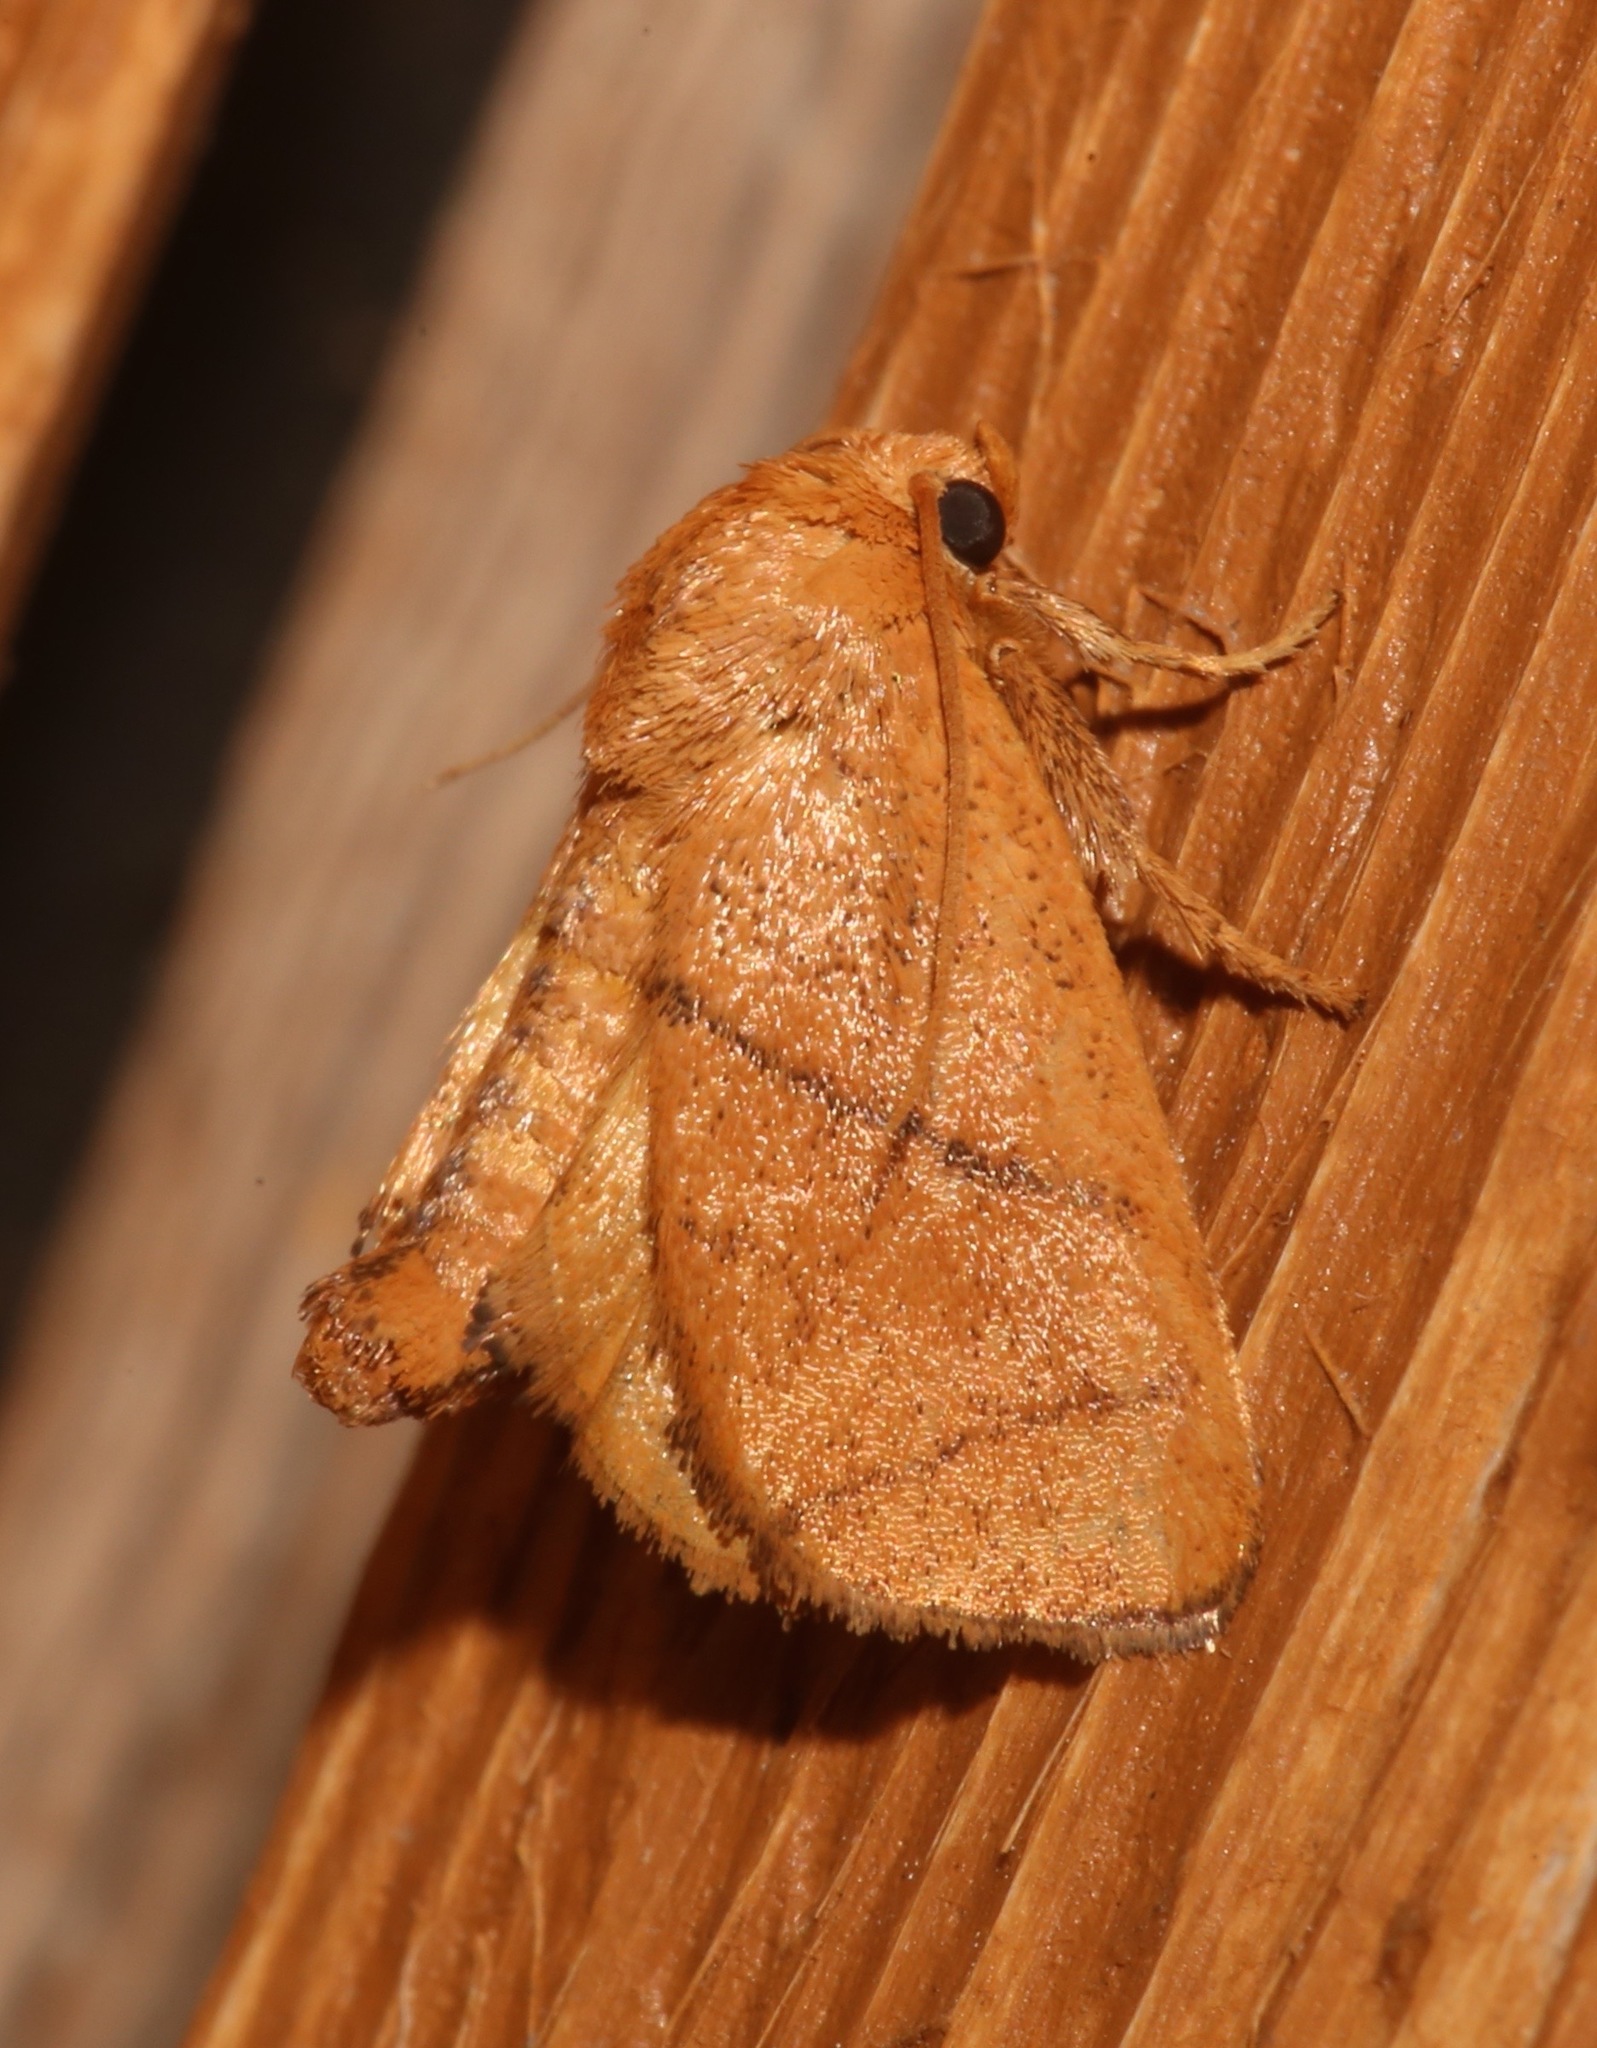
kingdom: Animalia
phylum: Arthropoda
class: Insecta
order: Lepidoptera
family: Limacodidae
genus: Apoda
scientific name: Apoda y-inversa
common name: Yellow-collared slug moth
